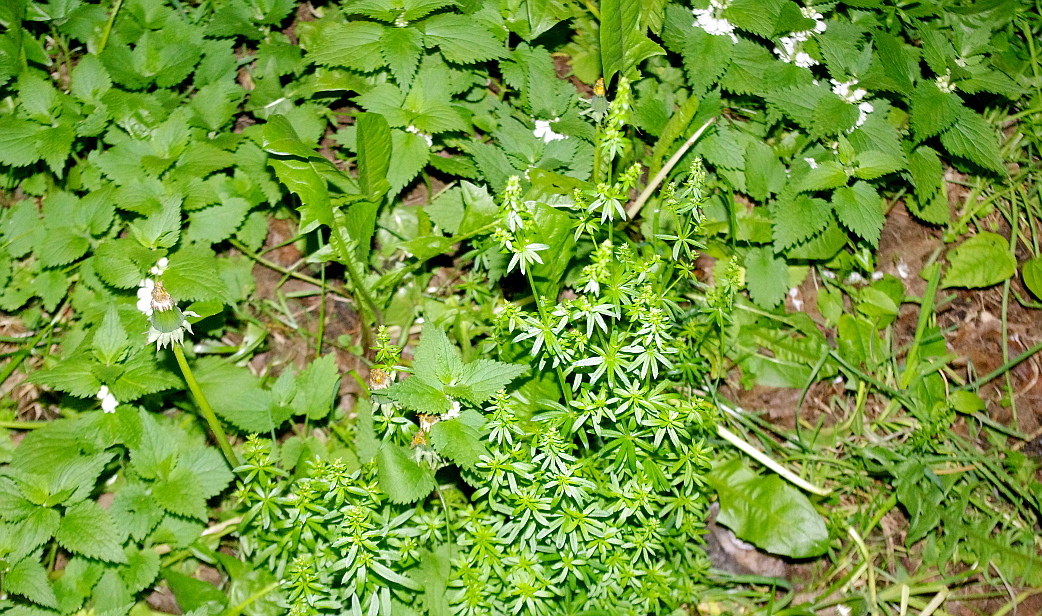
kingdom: Plantae
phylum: Tracheophyta
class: Magnoliopsida
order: Gentianales
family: Rubiaceae
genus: Galium
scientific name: Galium mollugo
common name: Hedge bedstraw
